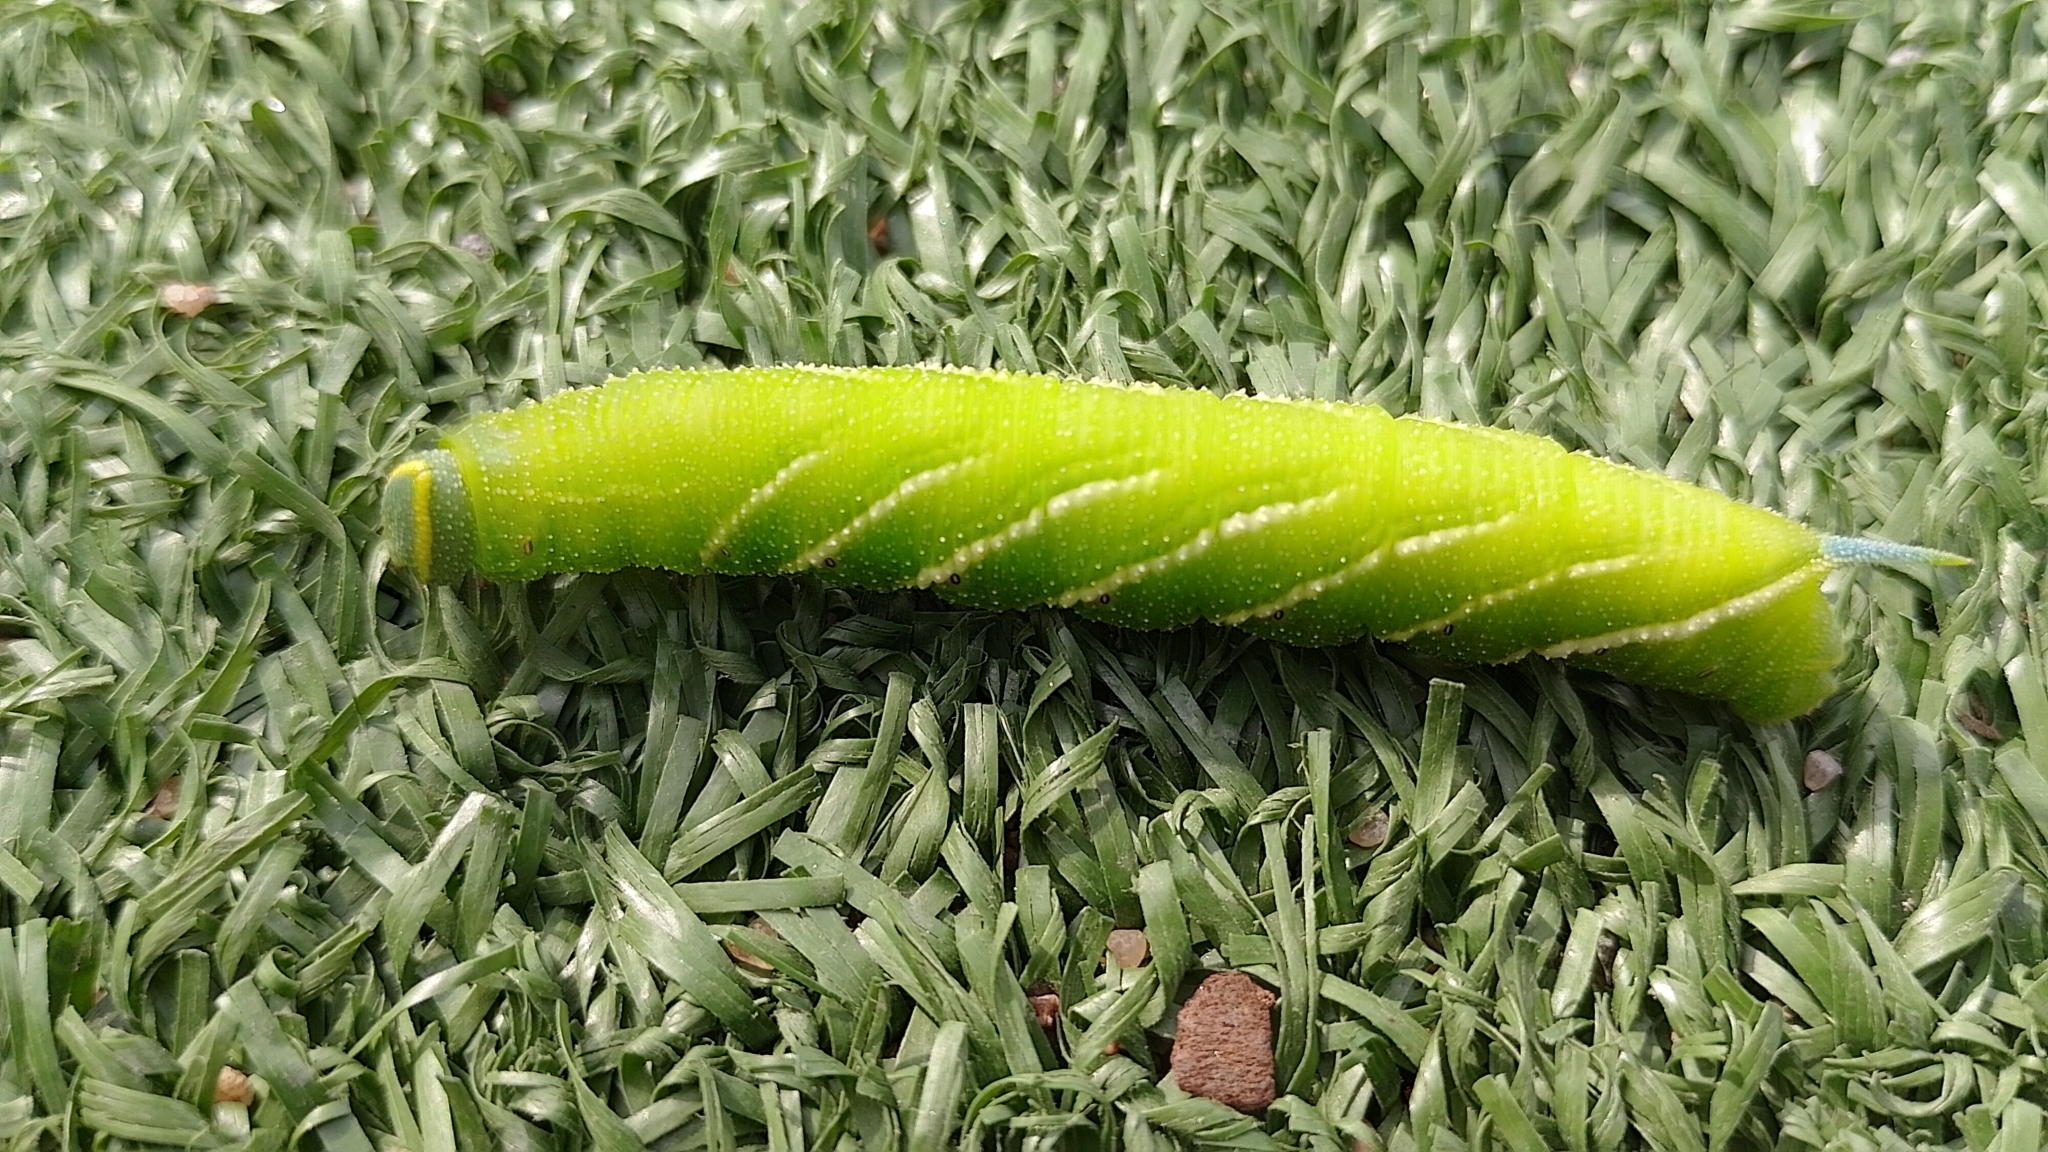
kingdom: Animalia
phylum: Arthropoda
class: Insecta
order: Lepidoptera
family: Sphingidae
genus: Smerinthus
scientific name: Smerinthus ocellata
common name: Eyed hawk-moth
